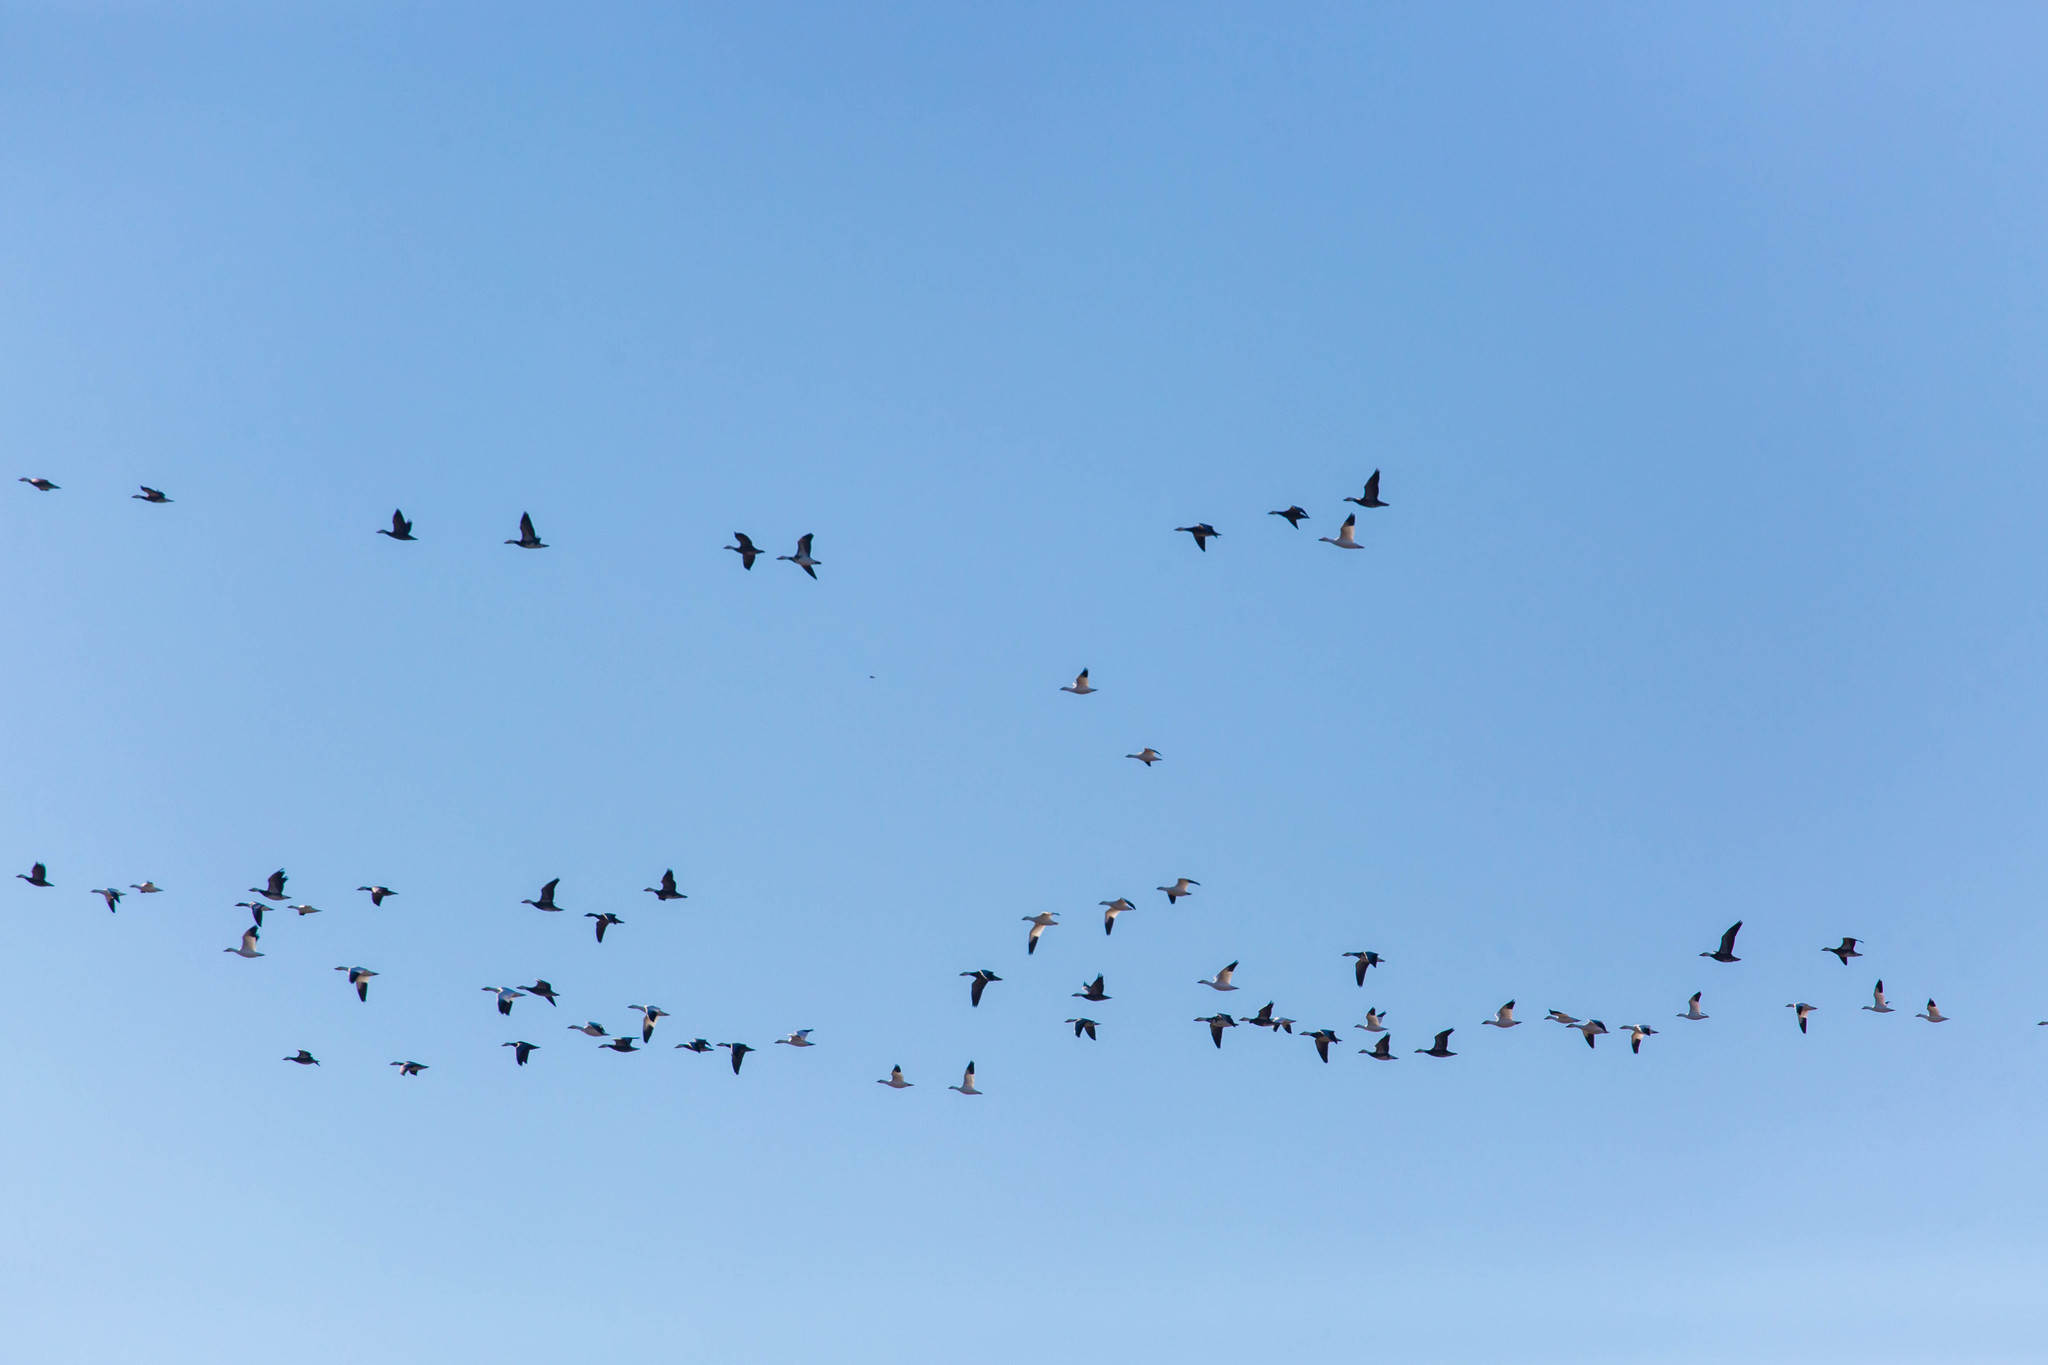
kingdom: Animalia
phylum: Chordata
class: Aves
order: Anseriformes
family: Anatidae
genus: Anser
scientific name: Anser caerulescens
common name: Snow goose
